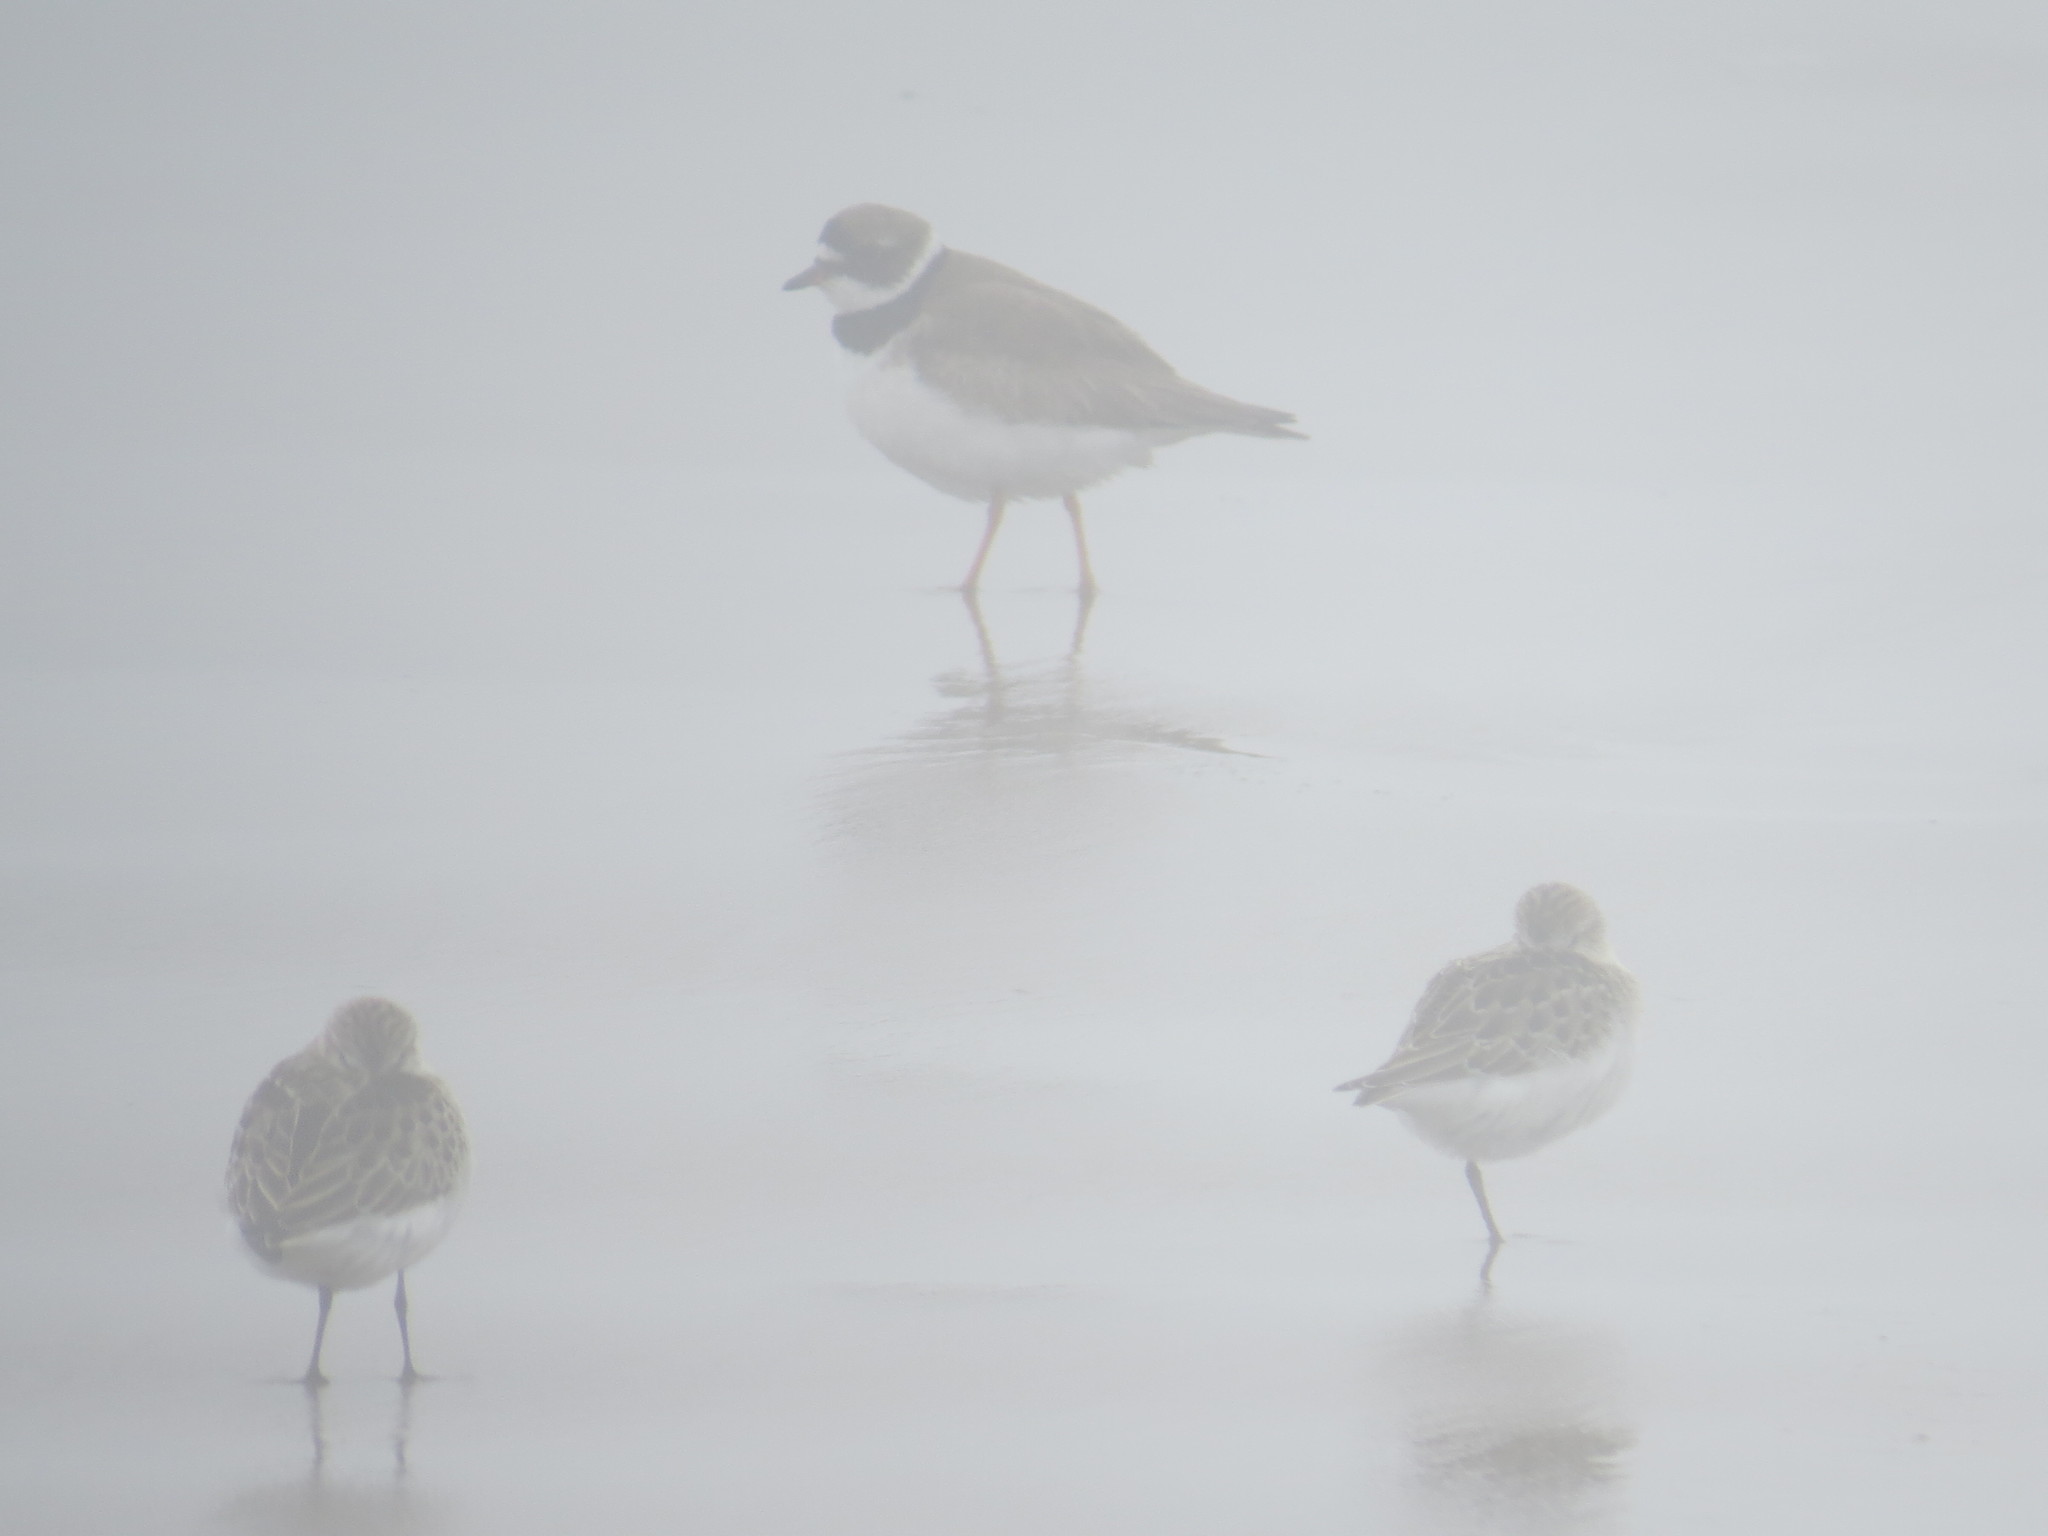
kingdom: Animalia
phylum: Chordata
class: Aves
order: Charadriiformes
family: Charadriidae
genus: Charadrius
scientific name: Charadrius semipalmatus
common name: Semipalmated plover
